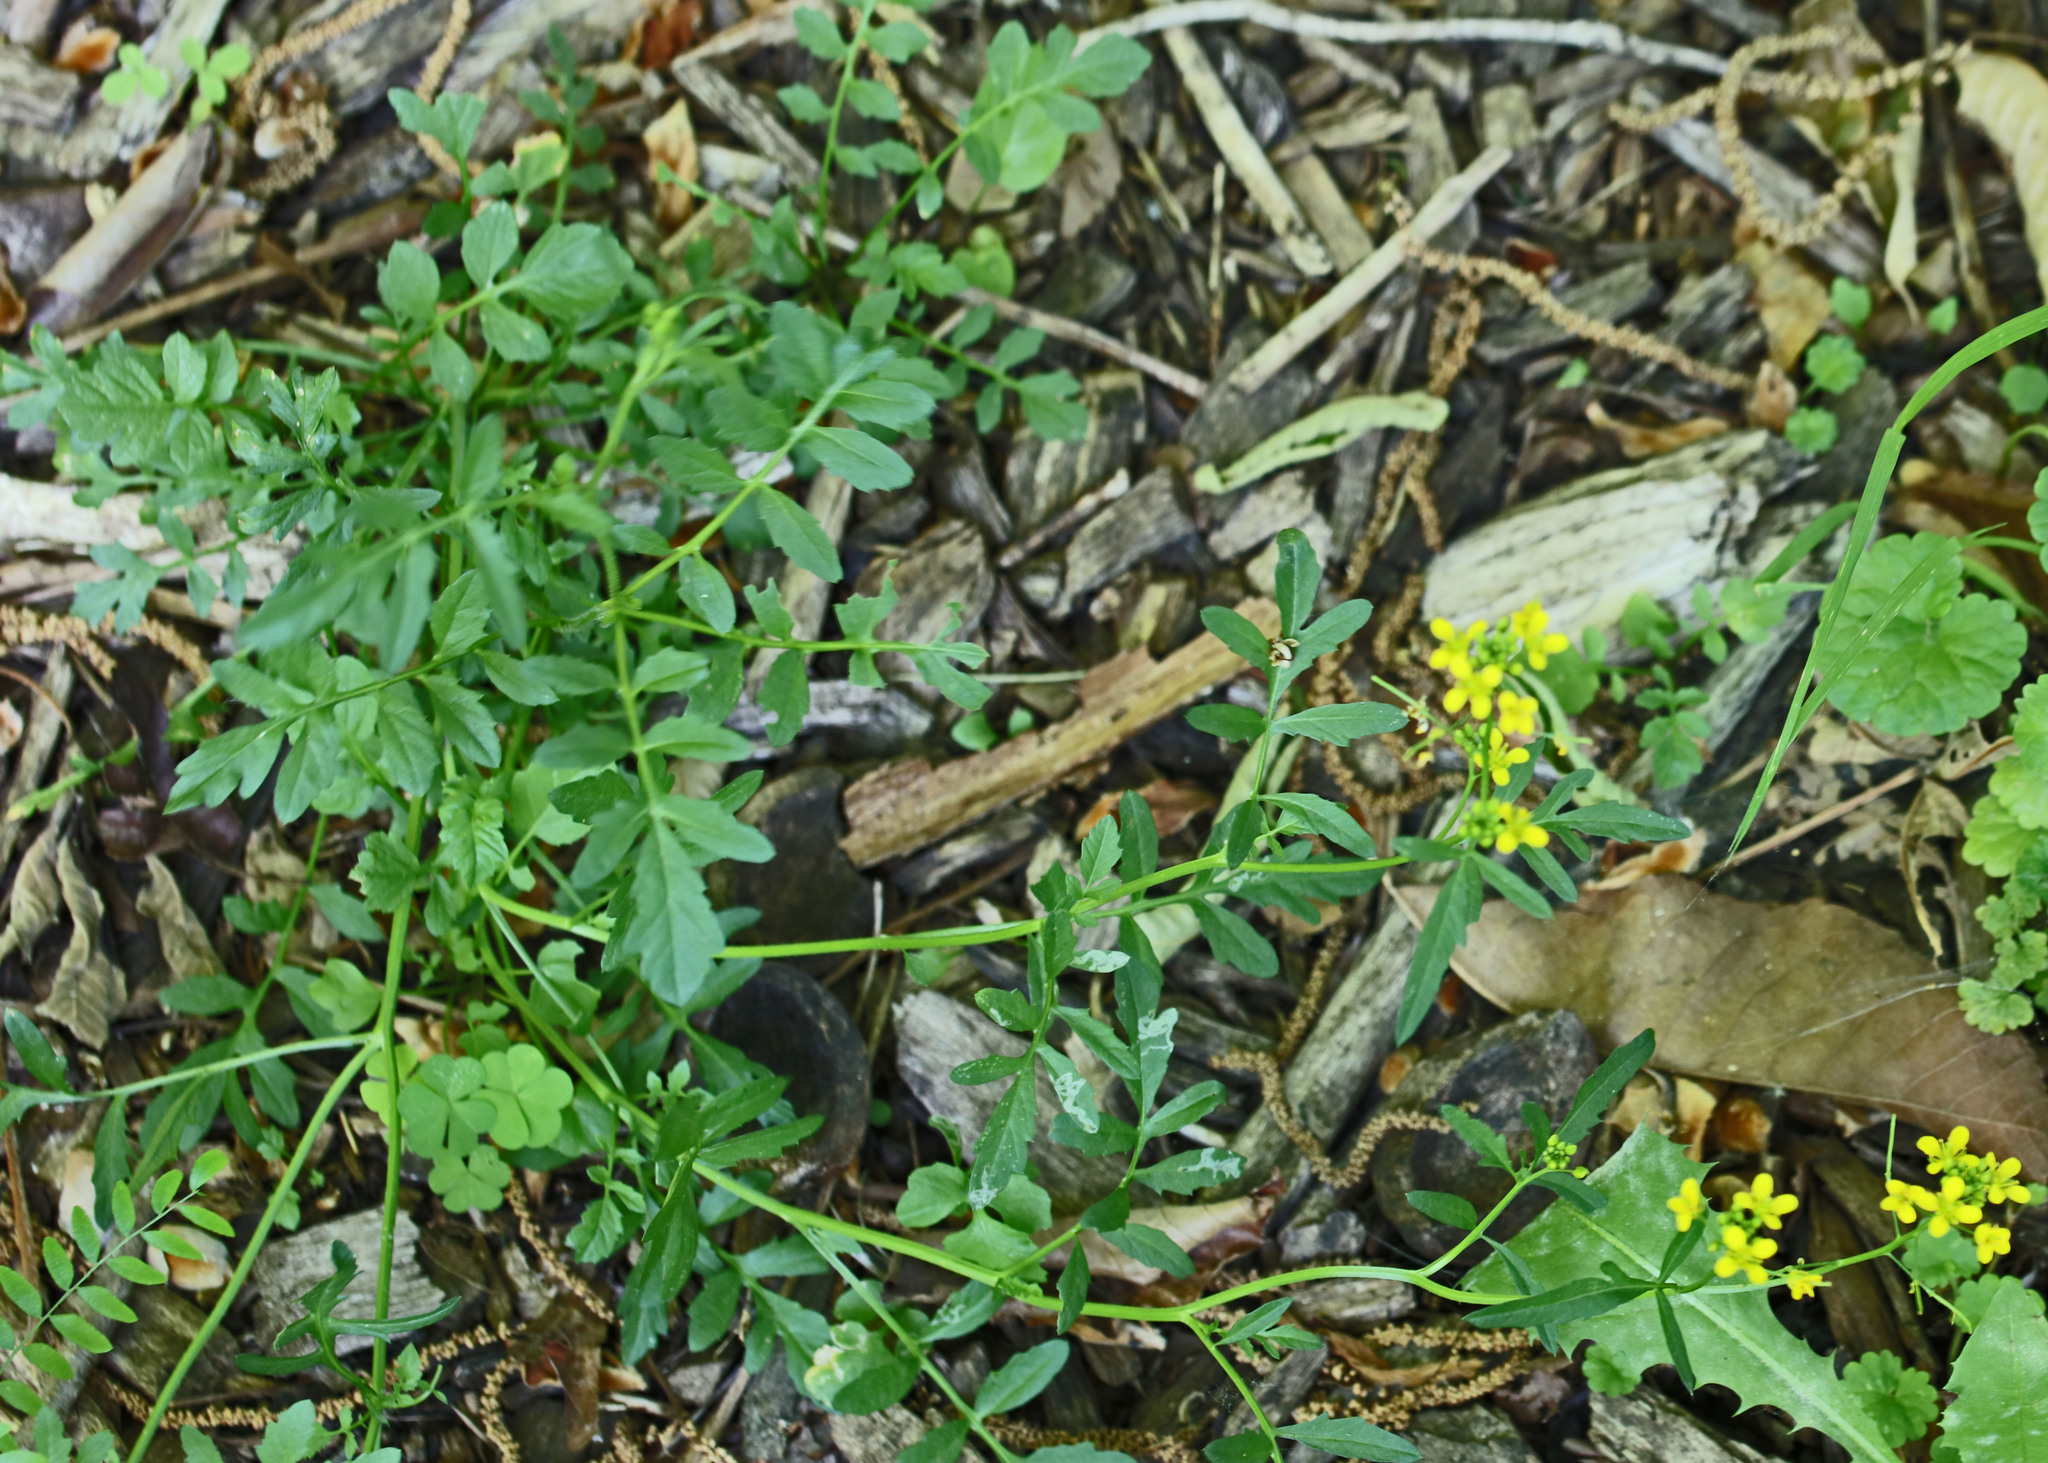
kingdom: Plantae
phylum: Tracheophyta
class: Magnoliopsida
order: Brassicales
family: Brassicaceae
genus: Rorippa
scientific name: Rorippa sylvestris
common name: Creeping yellowcress
